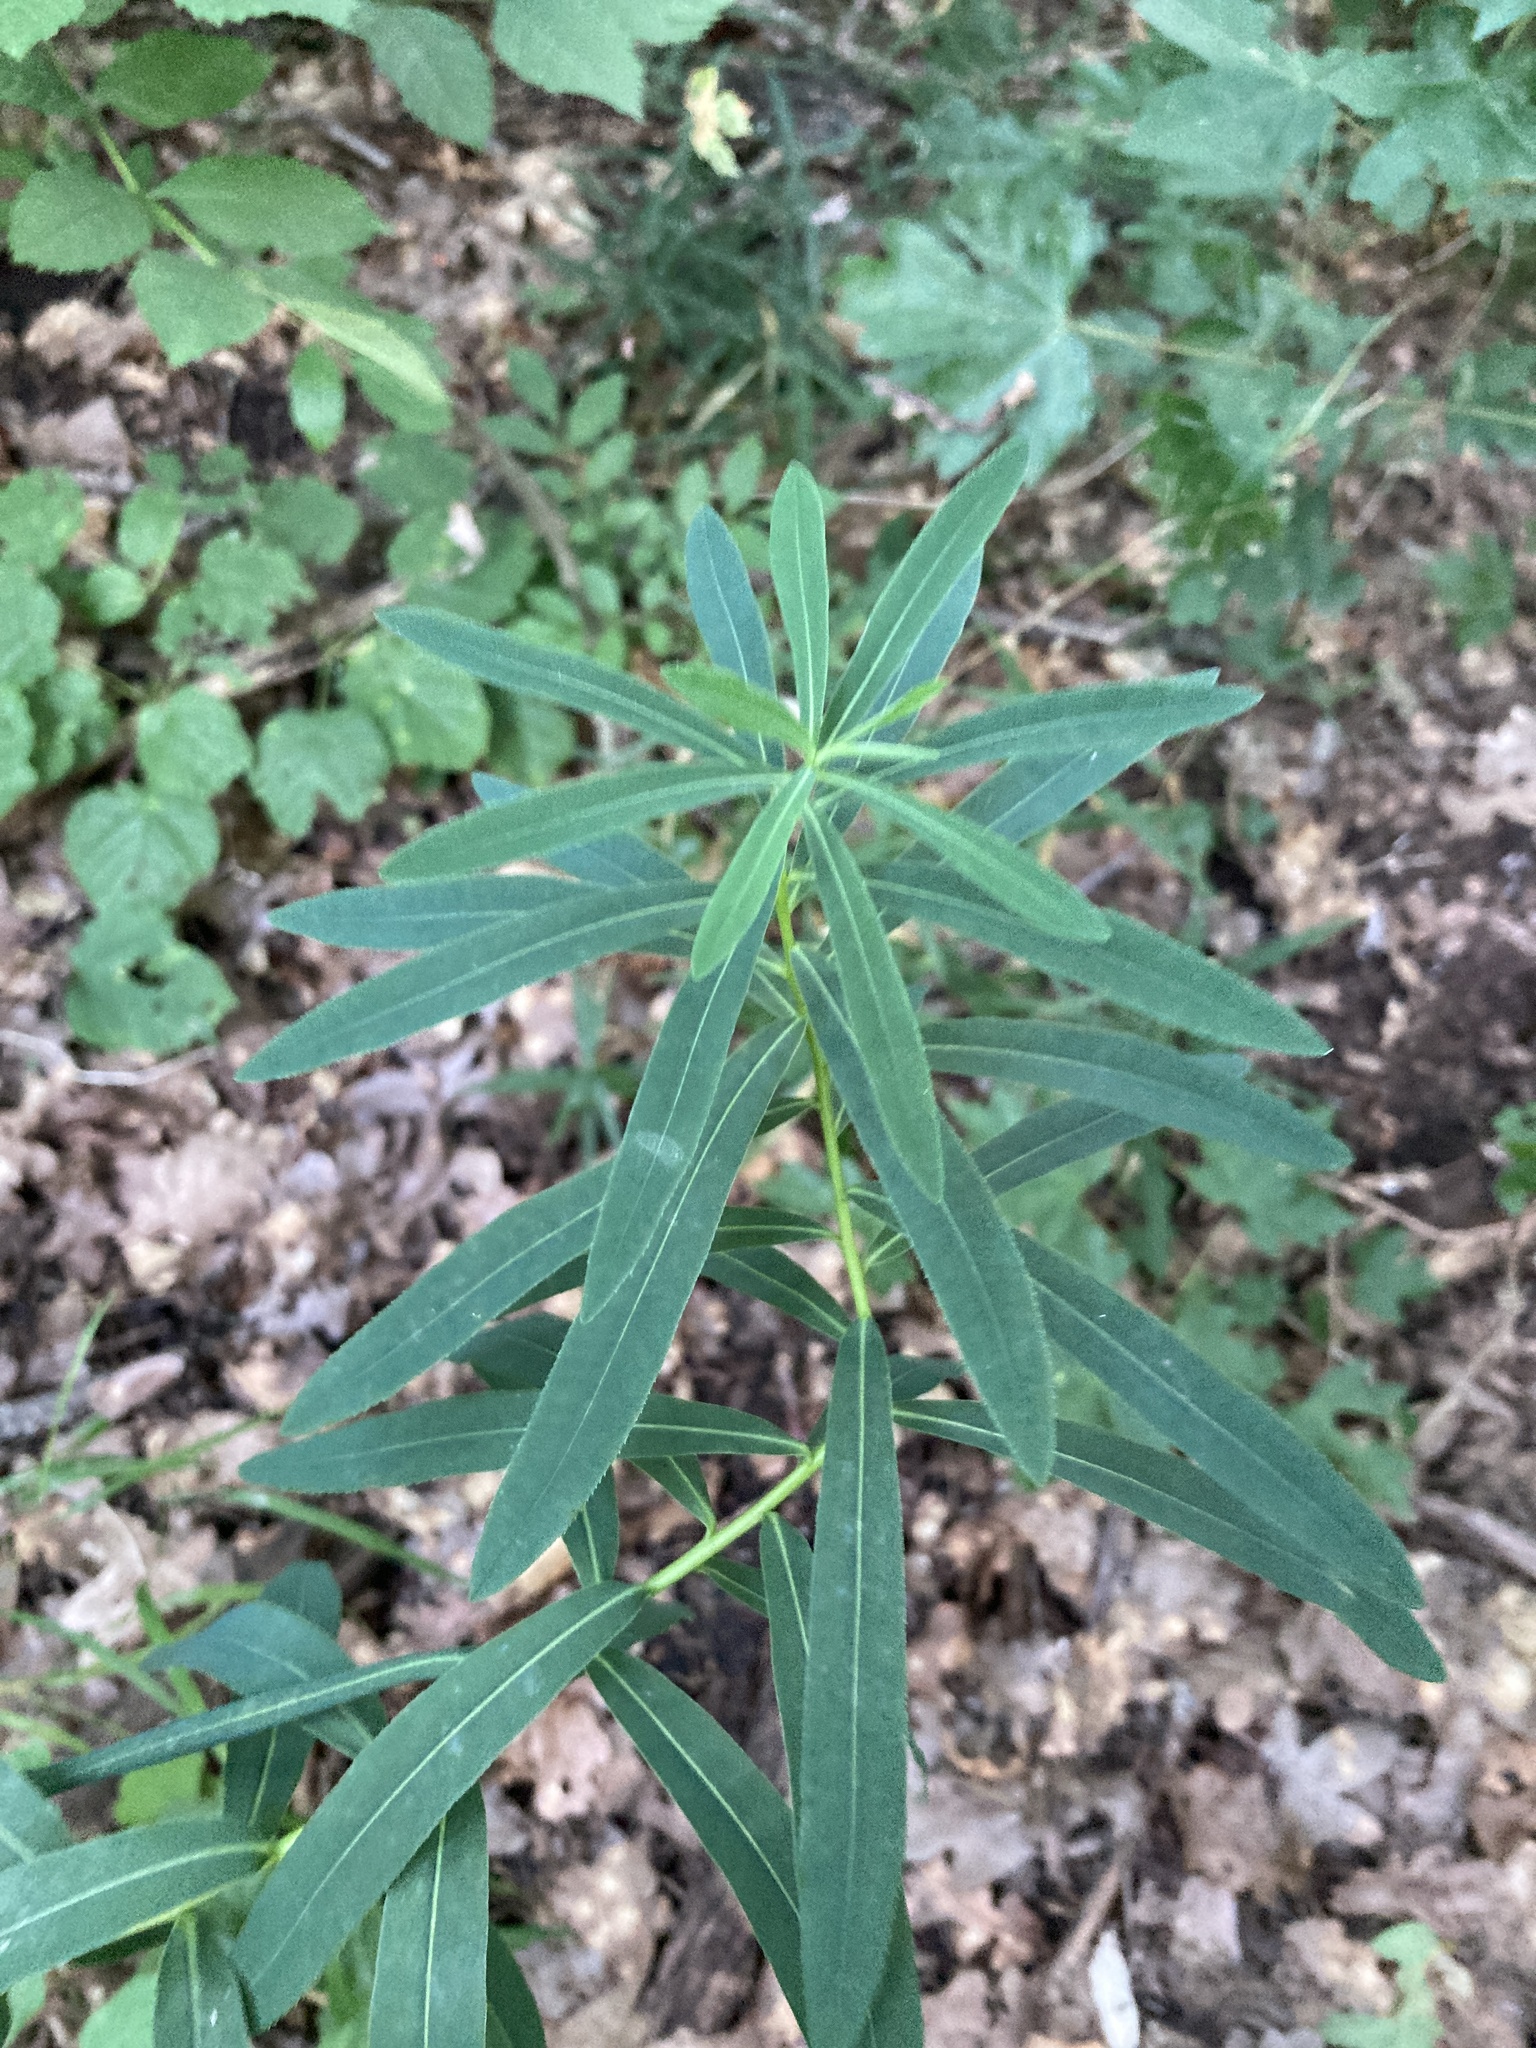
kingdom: Plantae
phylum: Tracheophyta
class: Magnoliopsida
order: Malpighiales
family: Euphorbiaceae
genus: Euphorbia
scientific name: Euphorbia semivillosa
